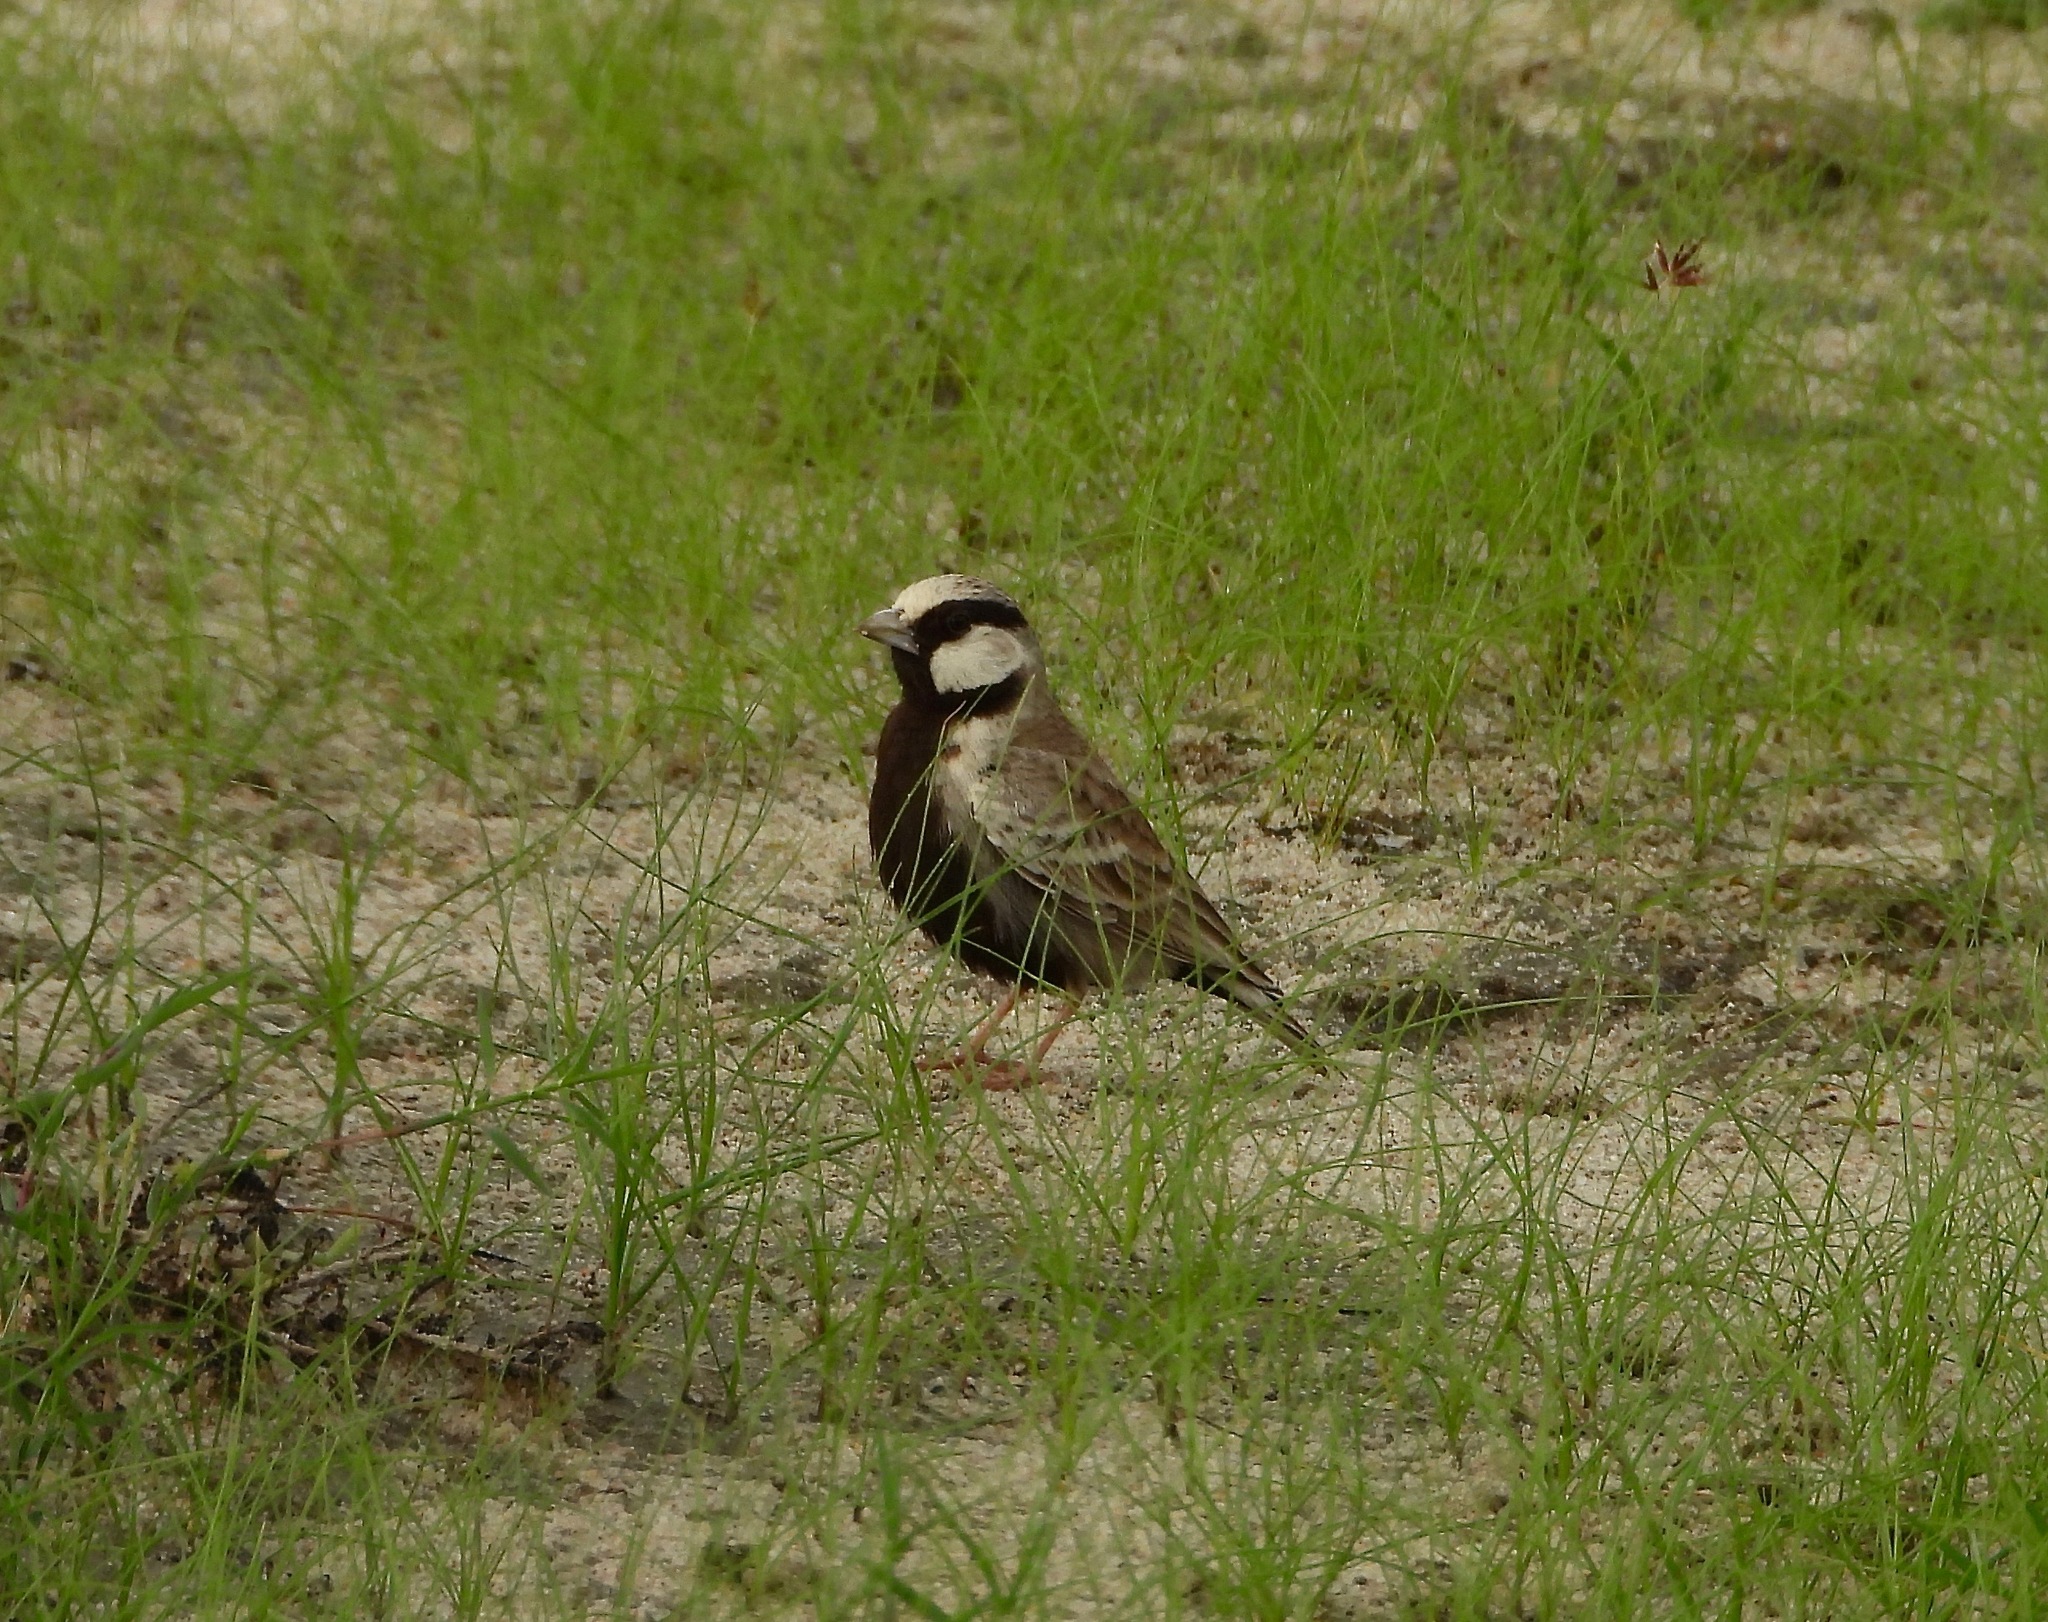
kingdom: Animalia
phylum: Chordata
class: Aves
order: Passeriformes
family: Alaudidae
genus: Eremopterix
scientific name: Eremopterix griseus
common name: Ashy-crowned sparrow-lark
